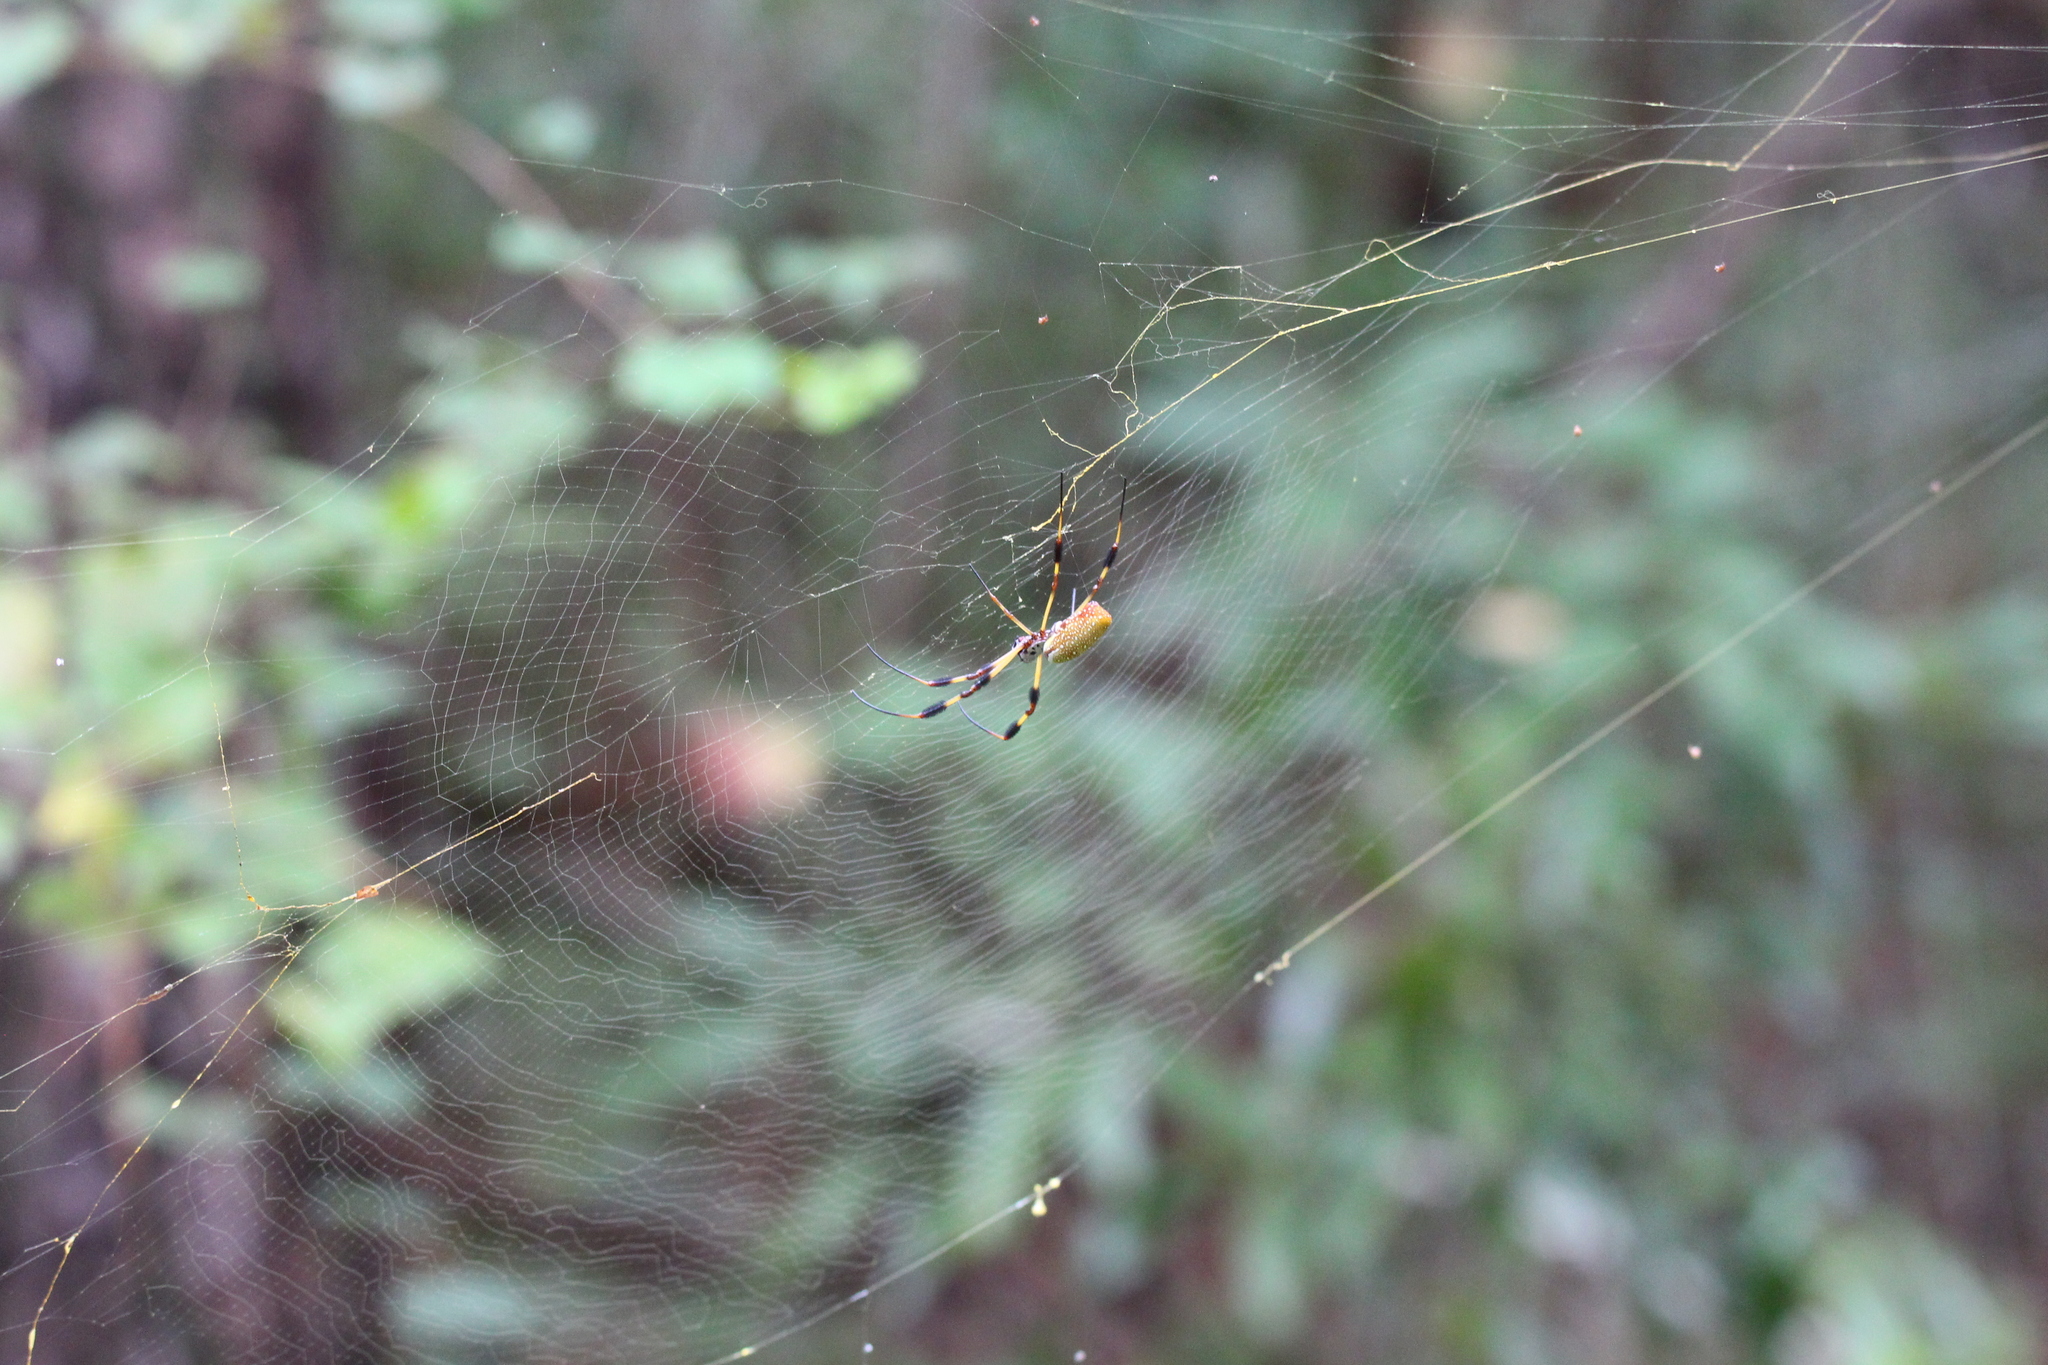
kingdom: Animalia
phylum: Arthropoda
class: Arachnida
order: Araneae
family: Araneidae
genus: Trichonephila
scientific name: Trichonephila clavipes
